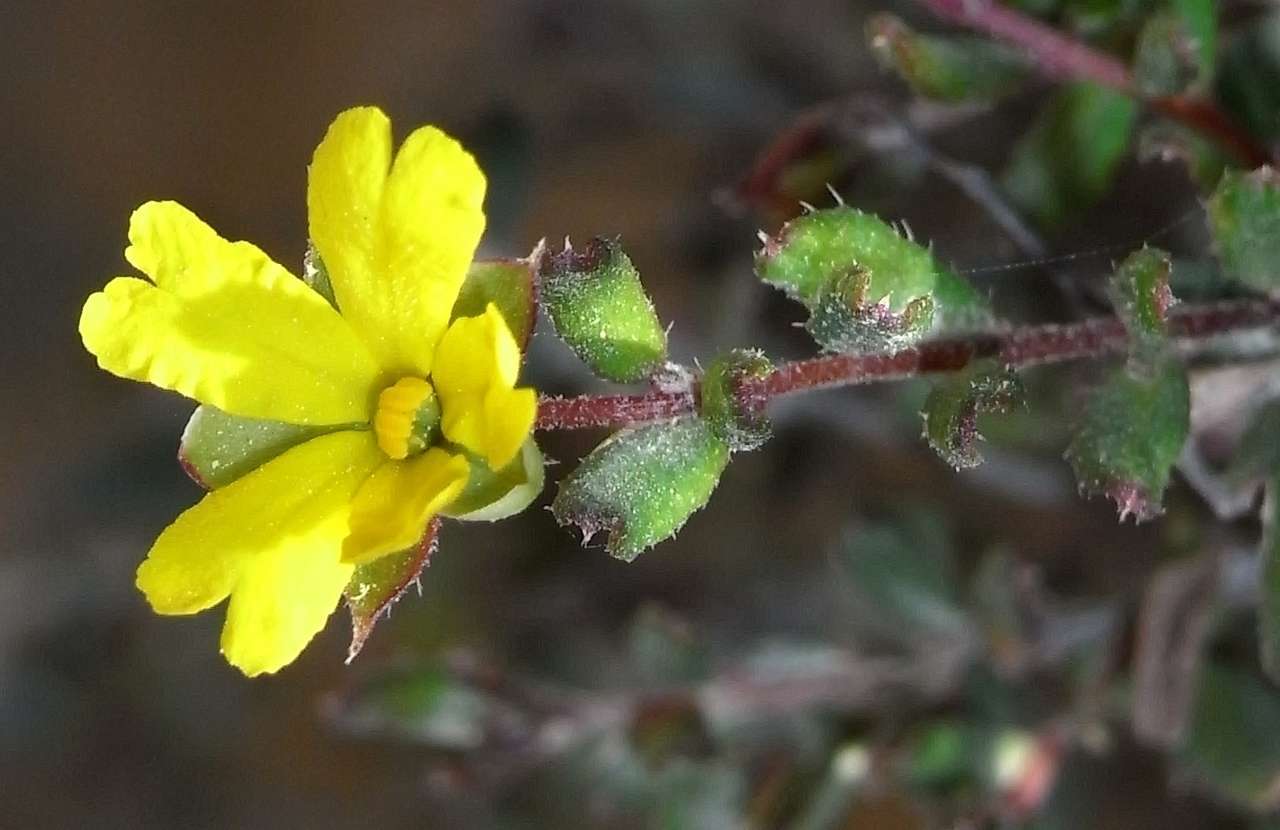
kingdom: Plantae
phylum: Tracheophyta
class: Magnoliopsida
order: Dilleniales
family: Dilleniaceae
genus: Hibbertia
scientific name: Hibbertia aspera
